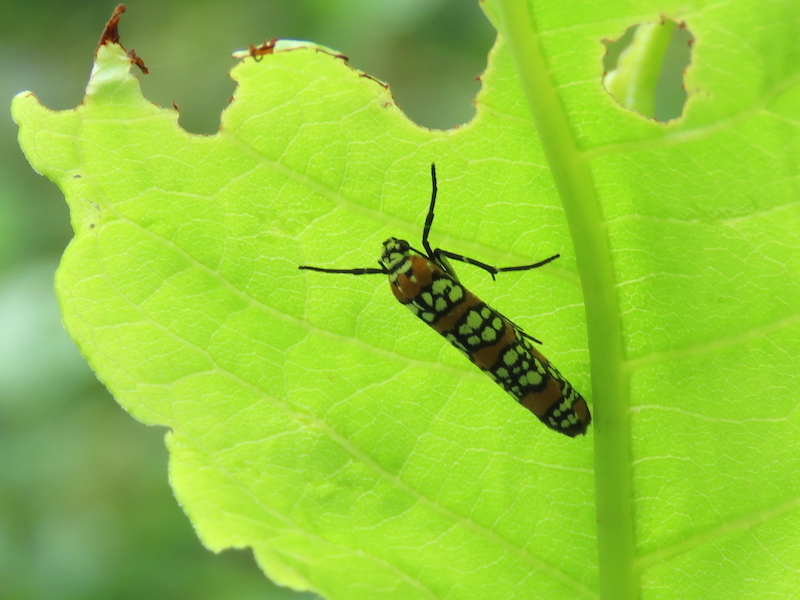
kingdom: Animalia
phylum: Arthropoda
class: Insecta
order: Lepidoptera
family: Attevidae
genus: Atteva
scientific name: Atteva punctella
